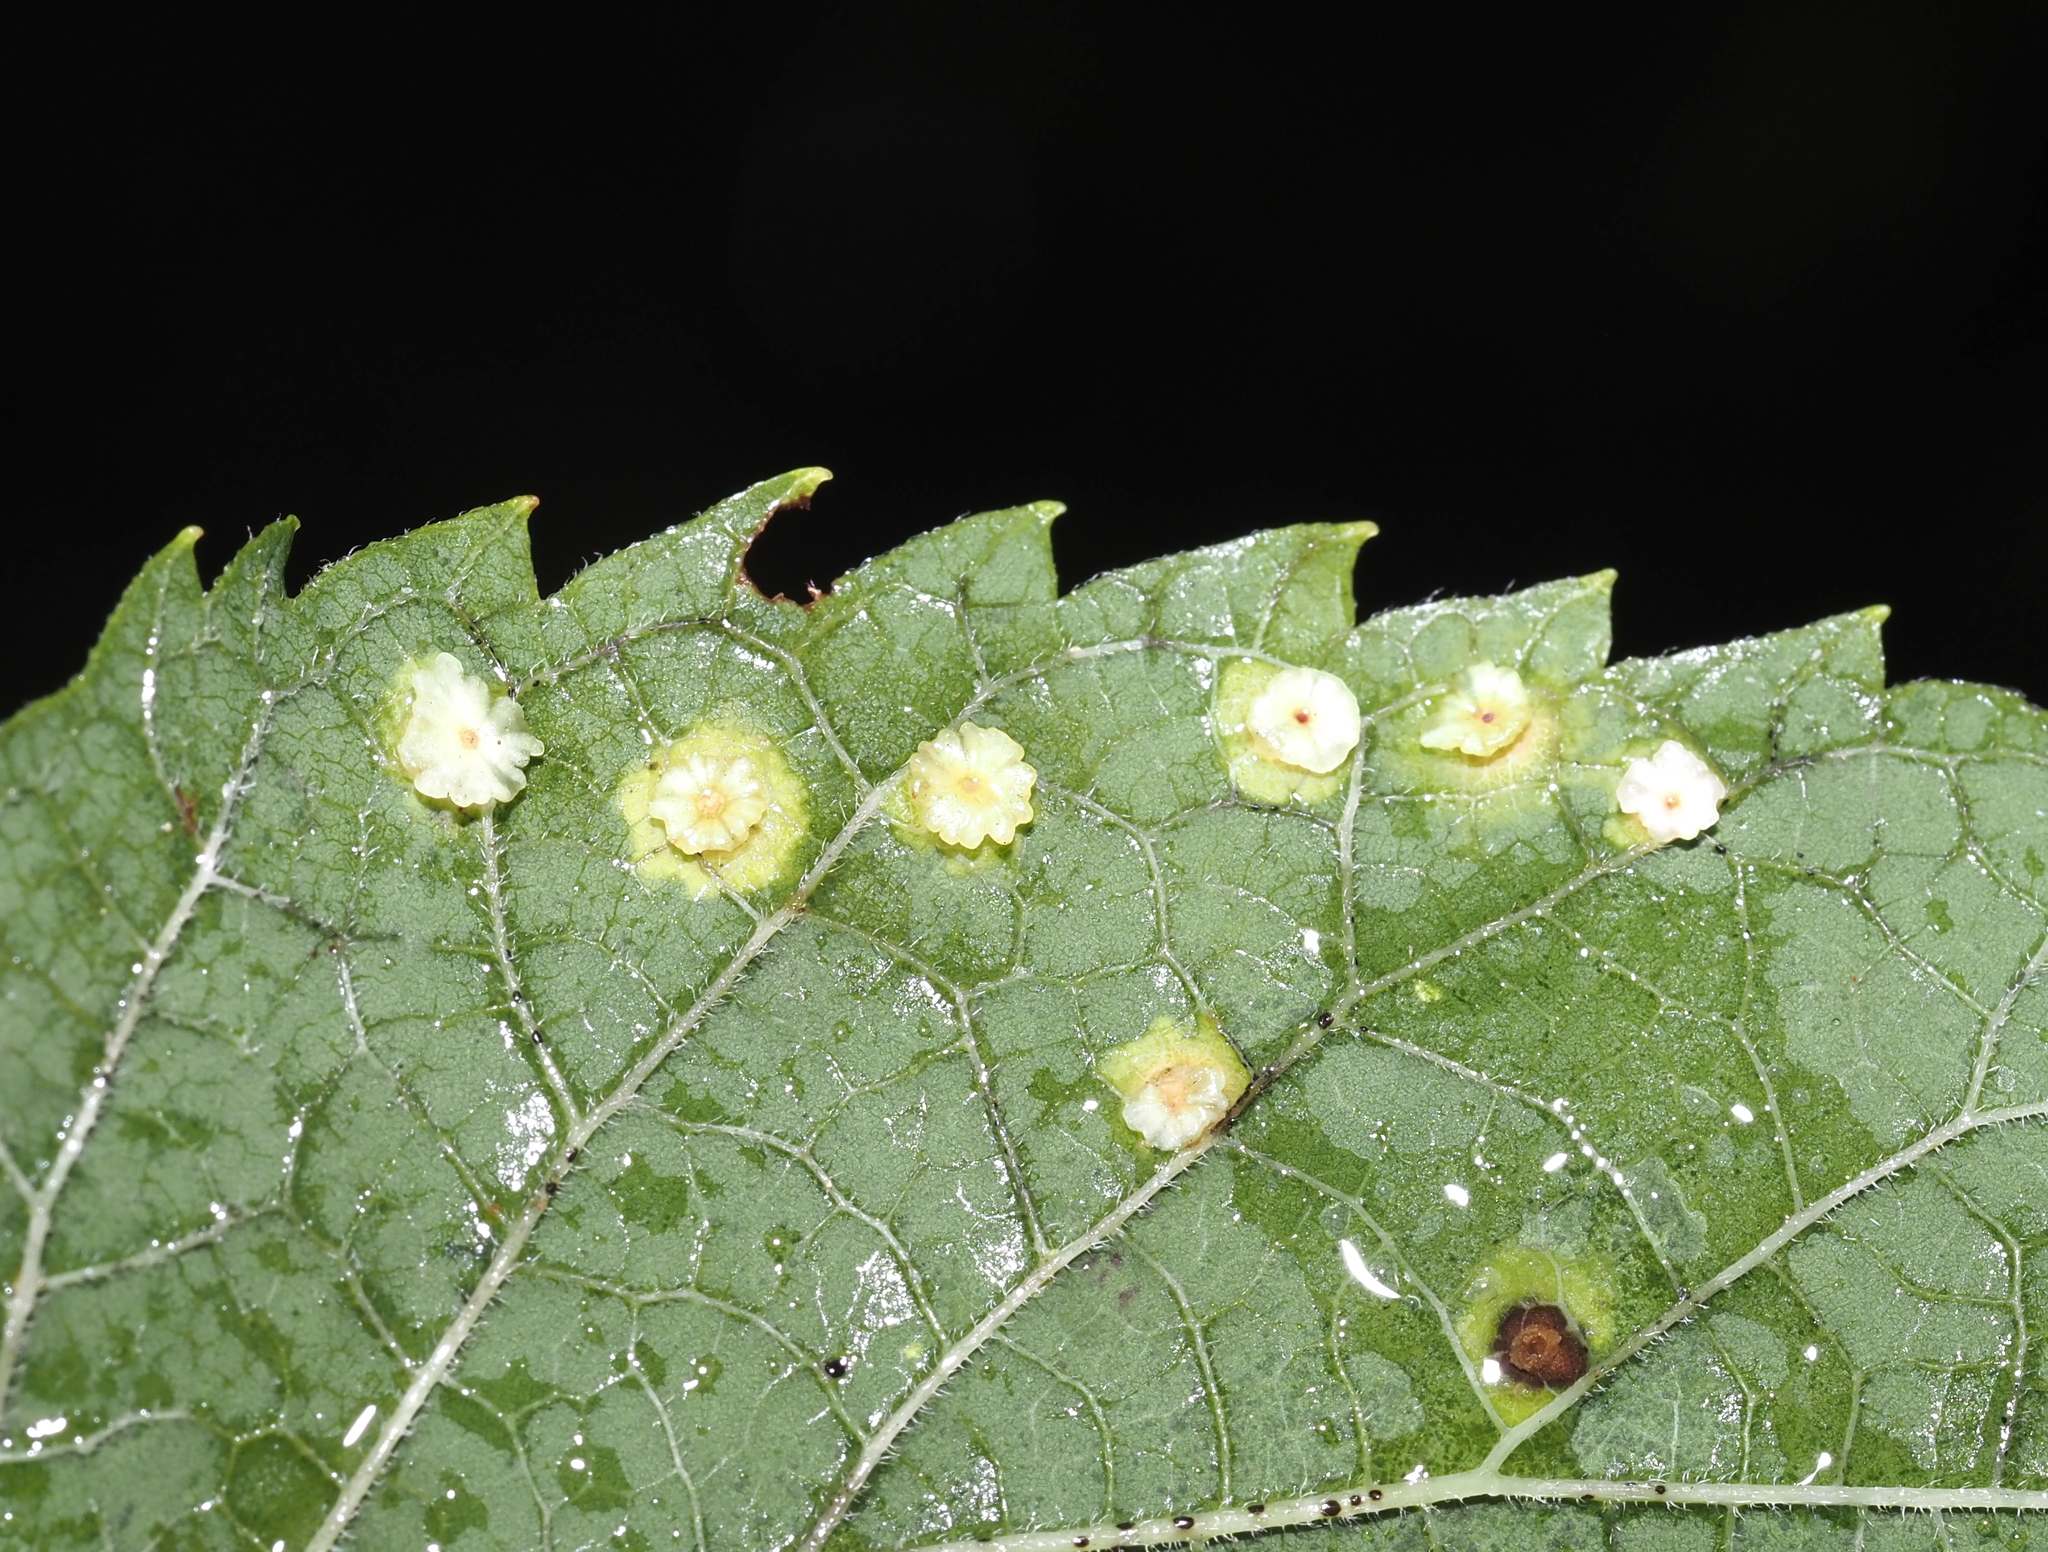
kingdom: Animalia
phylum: Arthropoda
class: Insecta
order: Hemiptera
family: Aphalaridae
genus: Pachypsylla
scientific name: Pachypsylla celtidisasterisca
